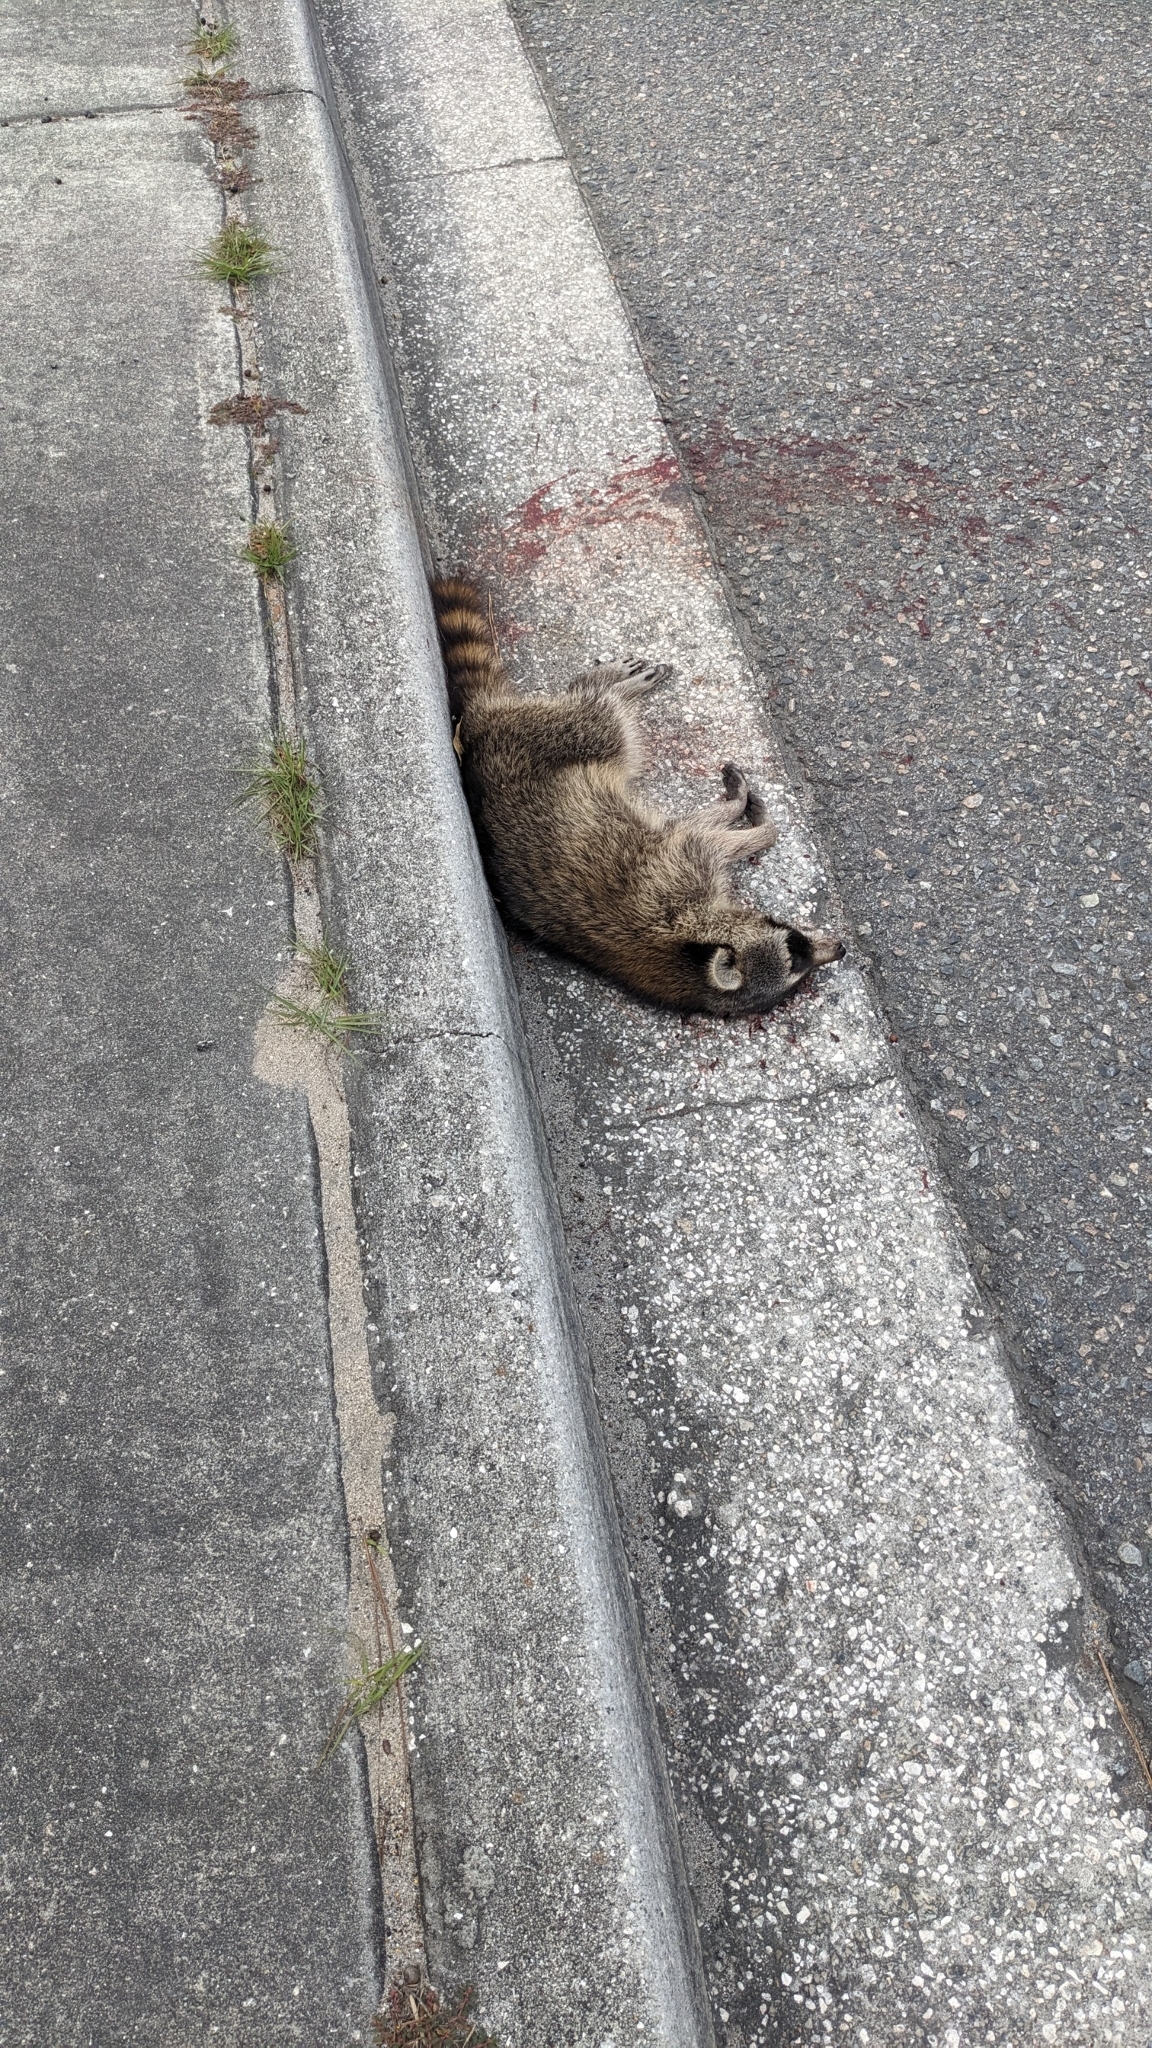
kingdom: Animalia
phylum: Chordata
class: Mammalia
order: Carnivora
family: Procyonidae
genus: Procyon
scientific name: Procyon lotor
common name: Raccoon
